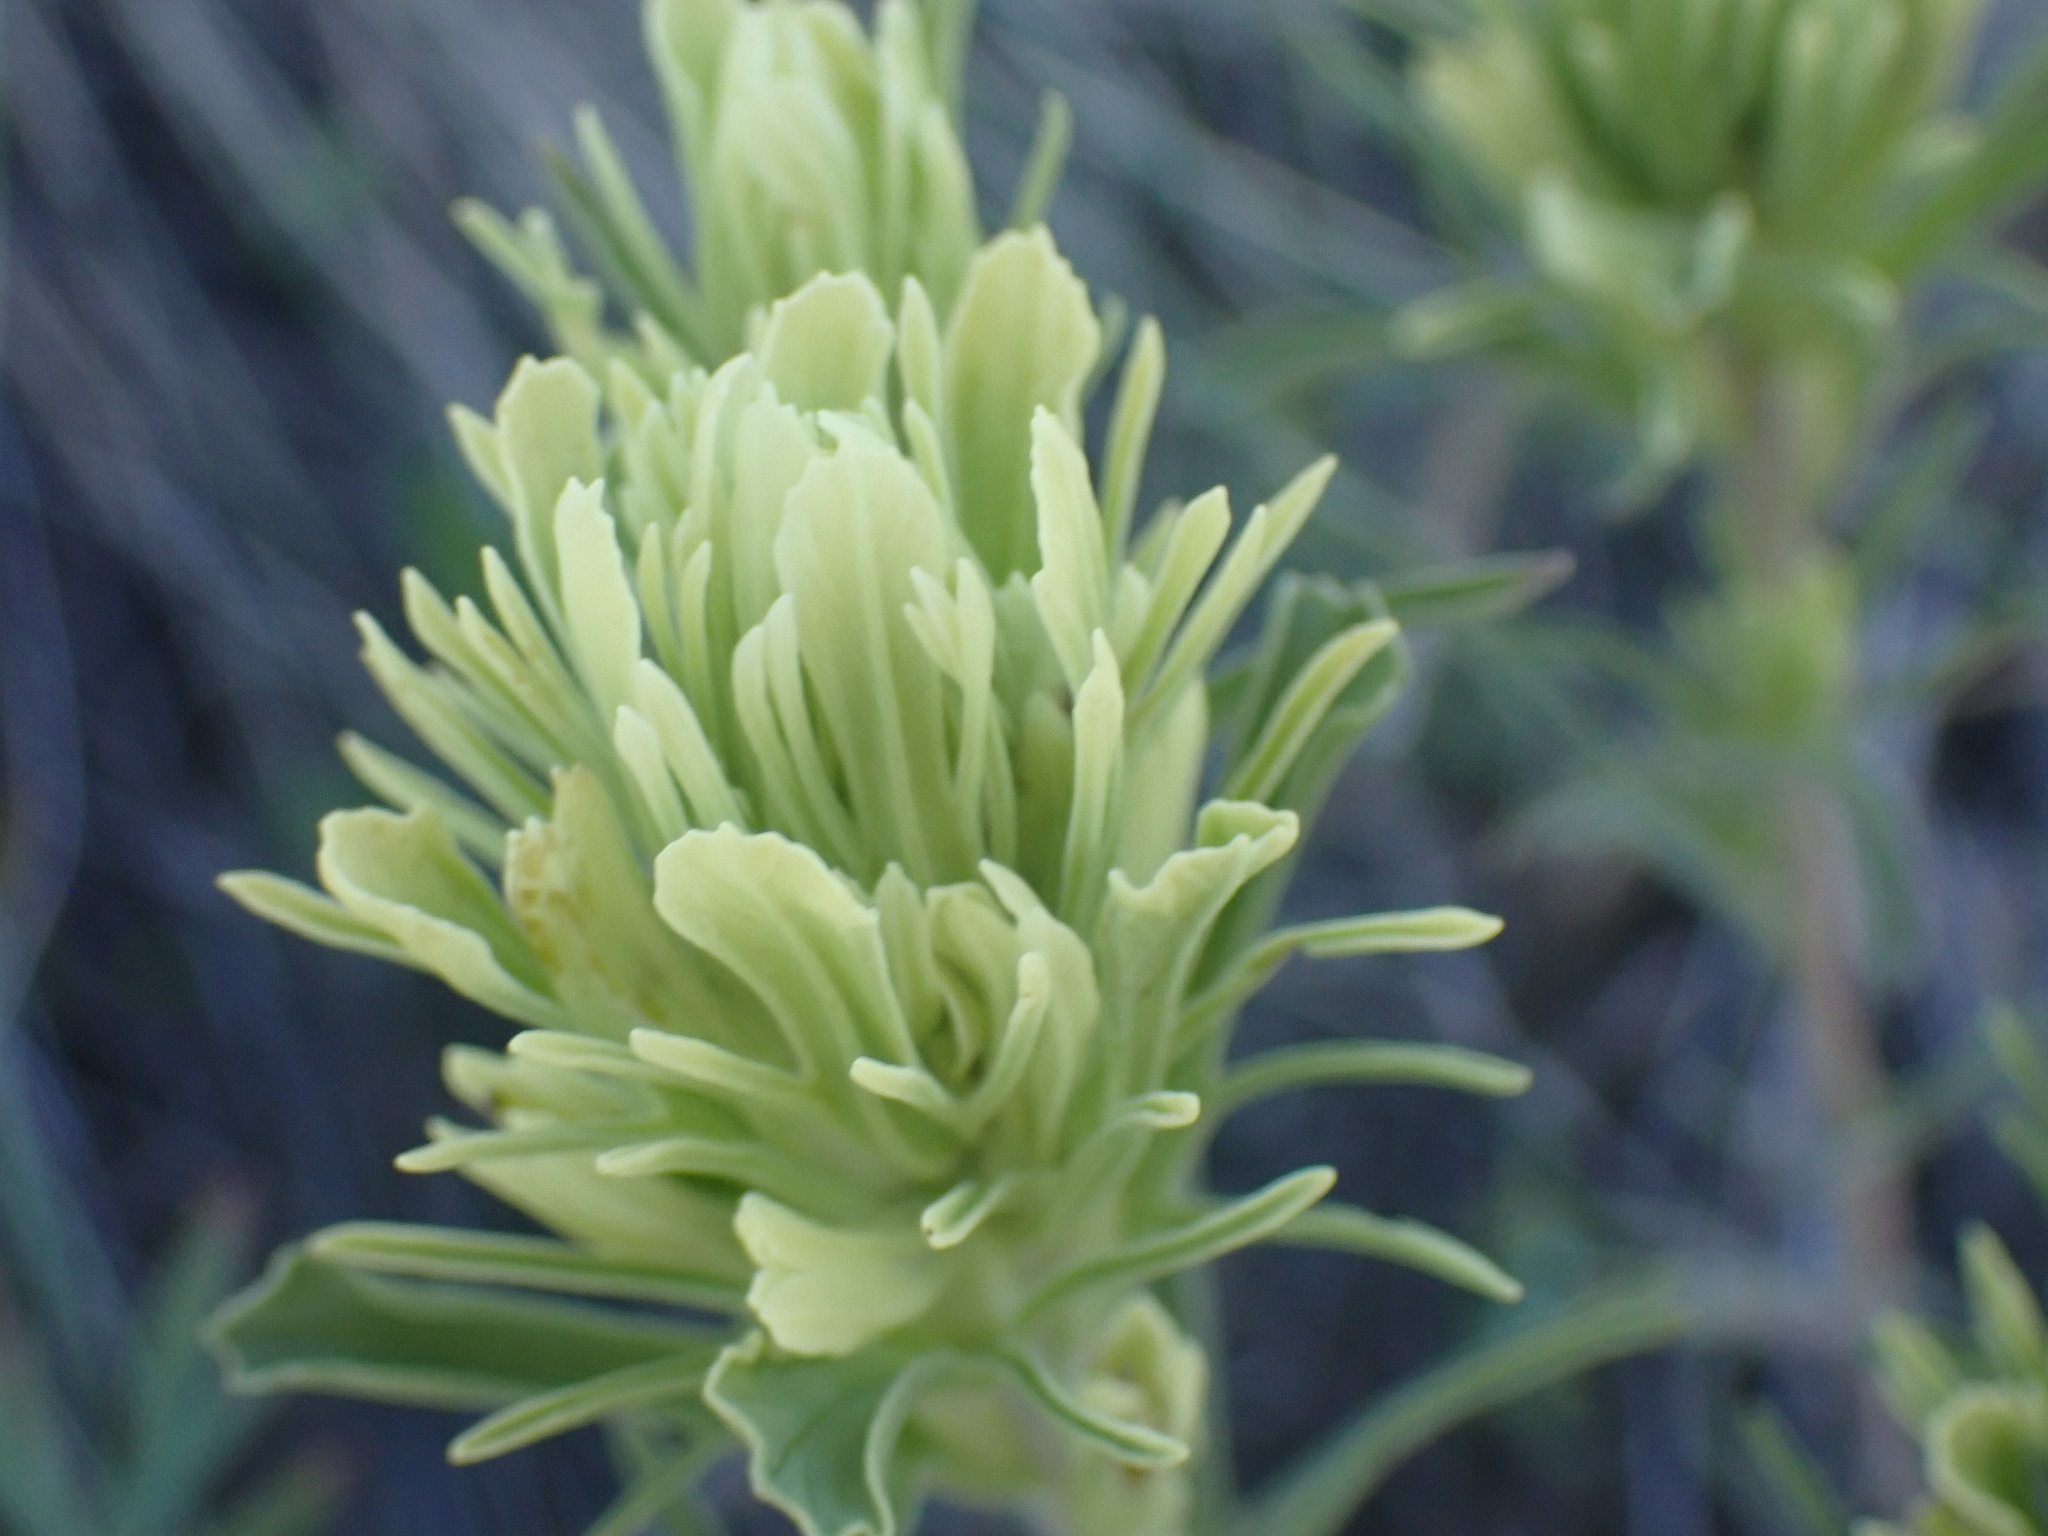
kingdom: Plantae
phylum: Tracheophyta
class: Magnoliopsida
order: Lamiales
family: Orobanchaceae
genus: Castilleja
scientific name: Castilleja thompsonii
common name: Thompson's paintbrush
